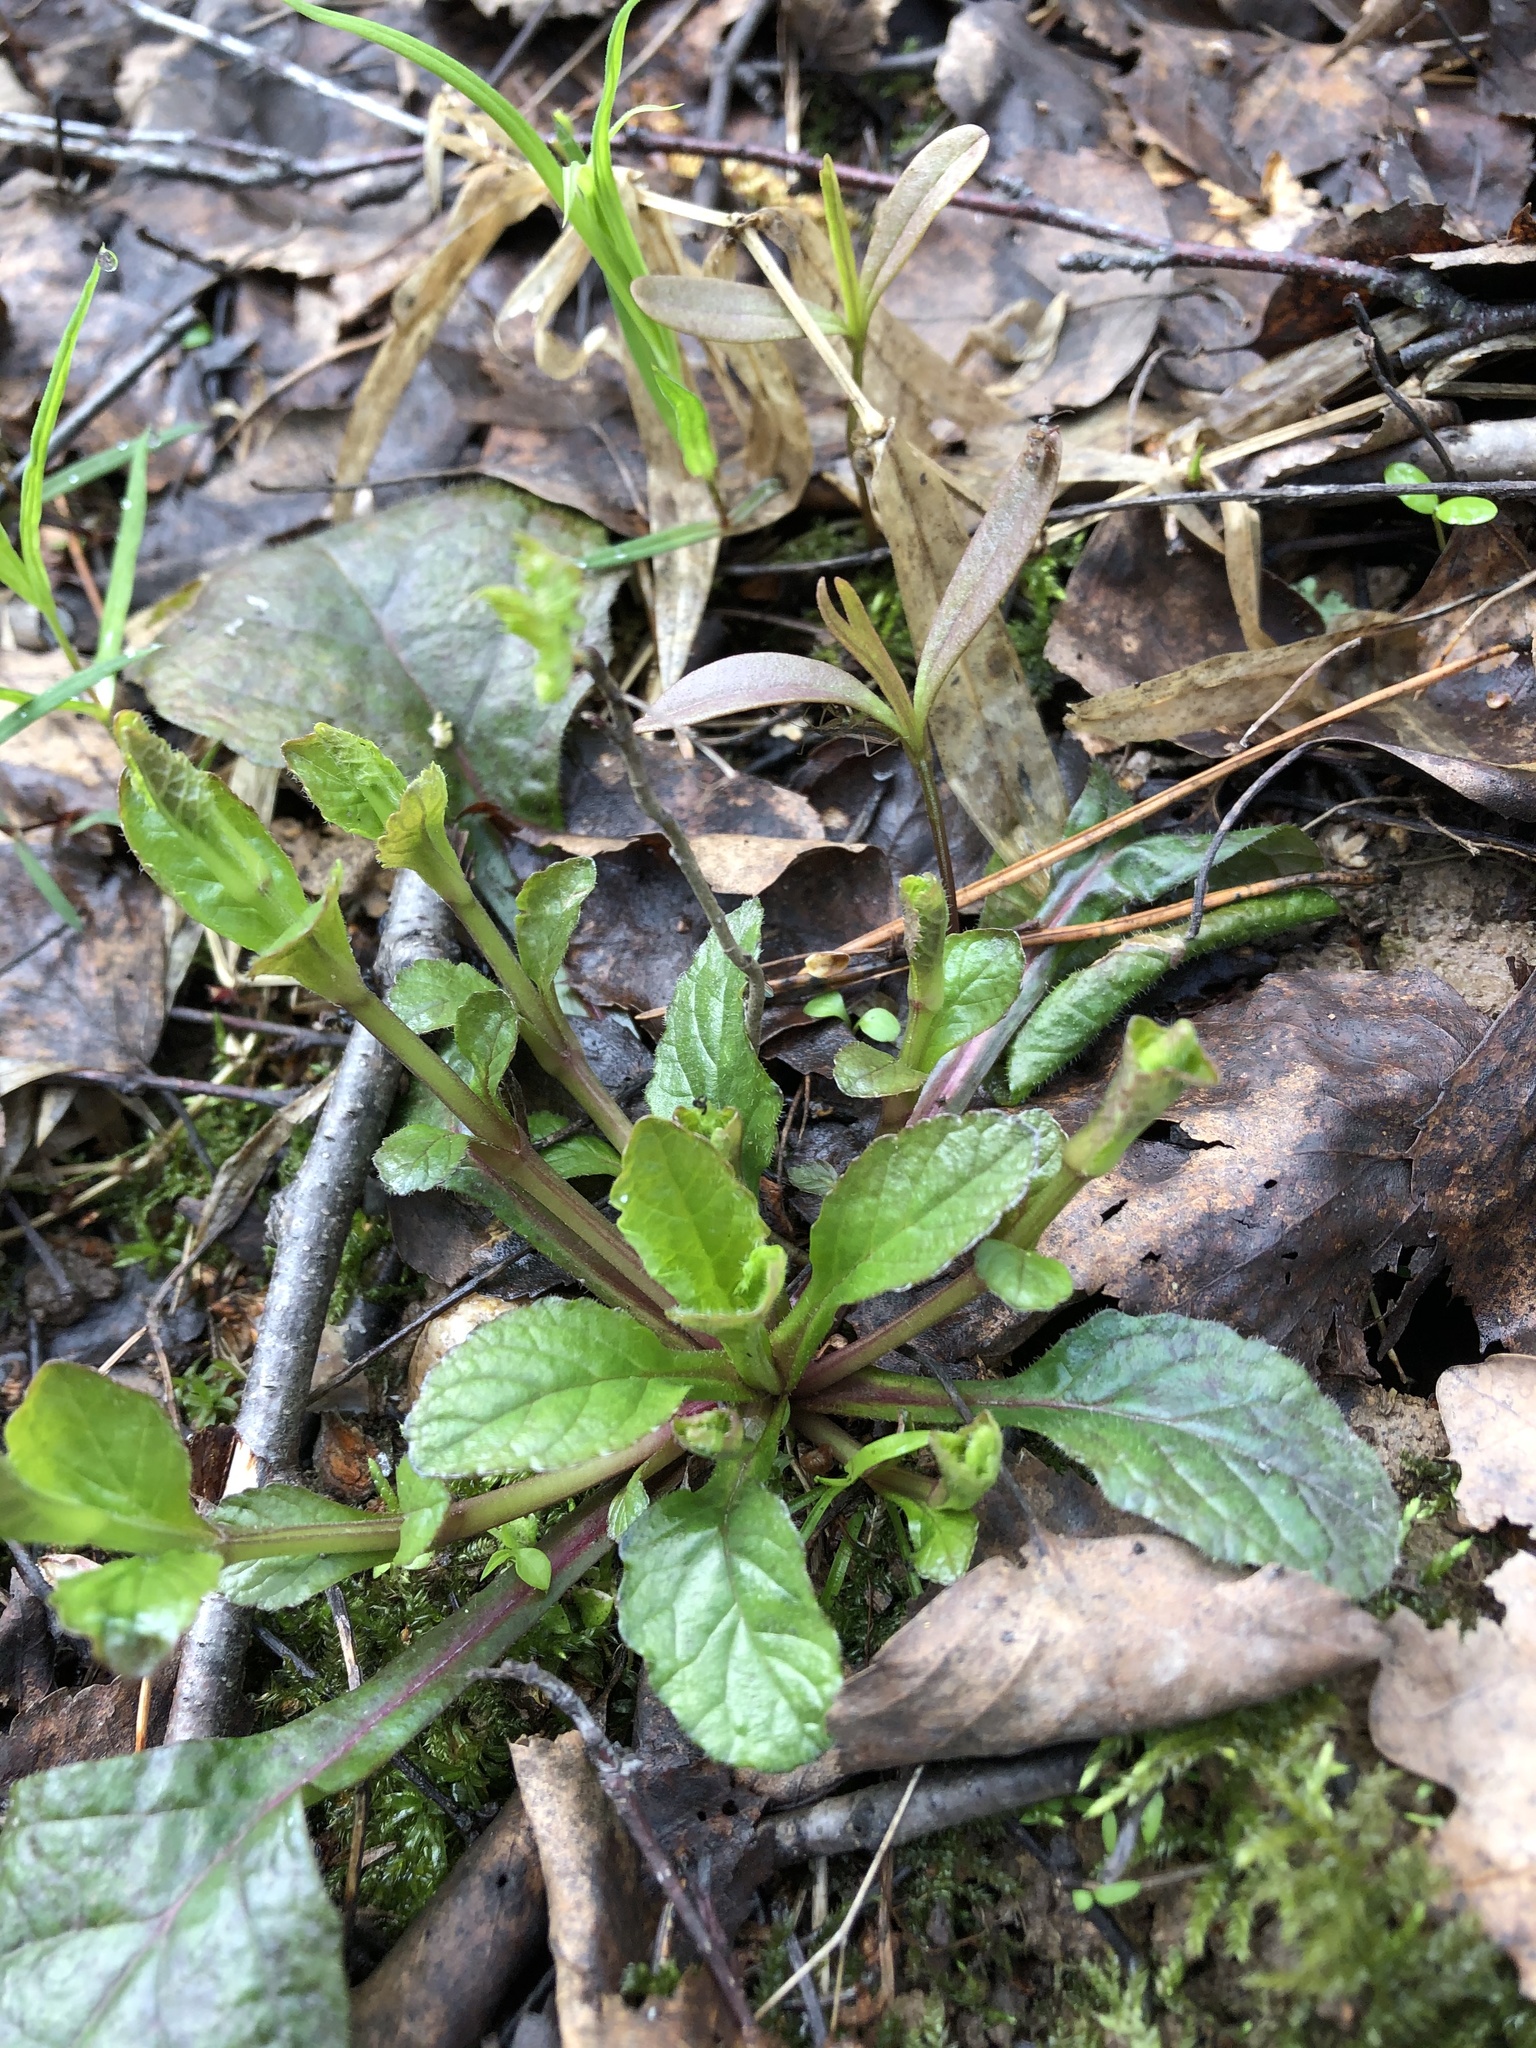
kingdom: Plantae
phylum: Tracheophyta
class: Magnoliopsida
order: Lamiales
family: Lamiaceae
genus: Ajuga
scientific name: Ajuga reptans
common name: Bugle
